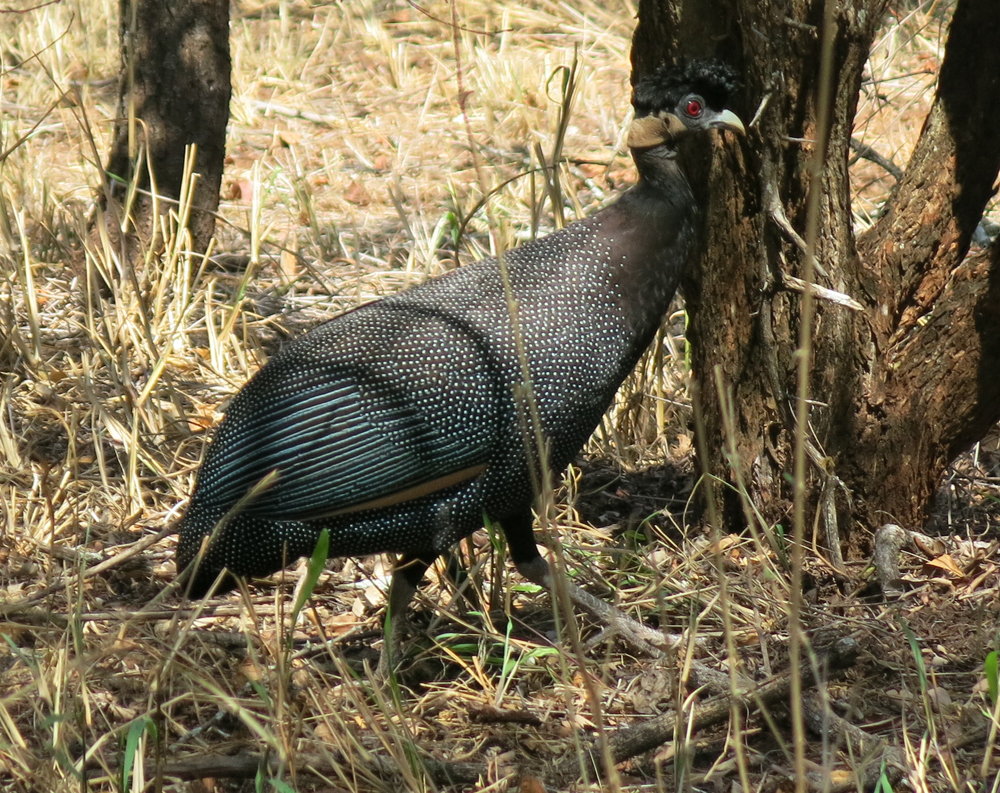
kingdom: Animalia
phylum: Chordata
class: Aves
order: Galliformes
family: Numididae
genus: Guttera
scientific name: Guttera pucherani
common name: Crested guineafowl
